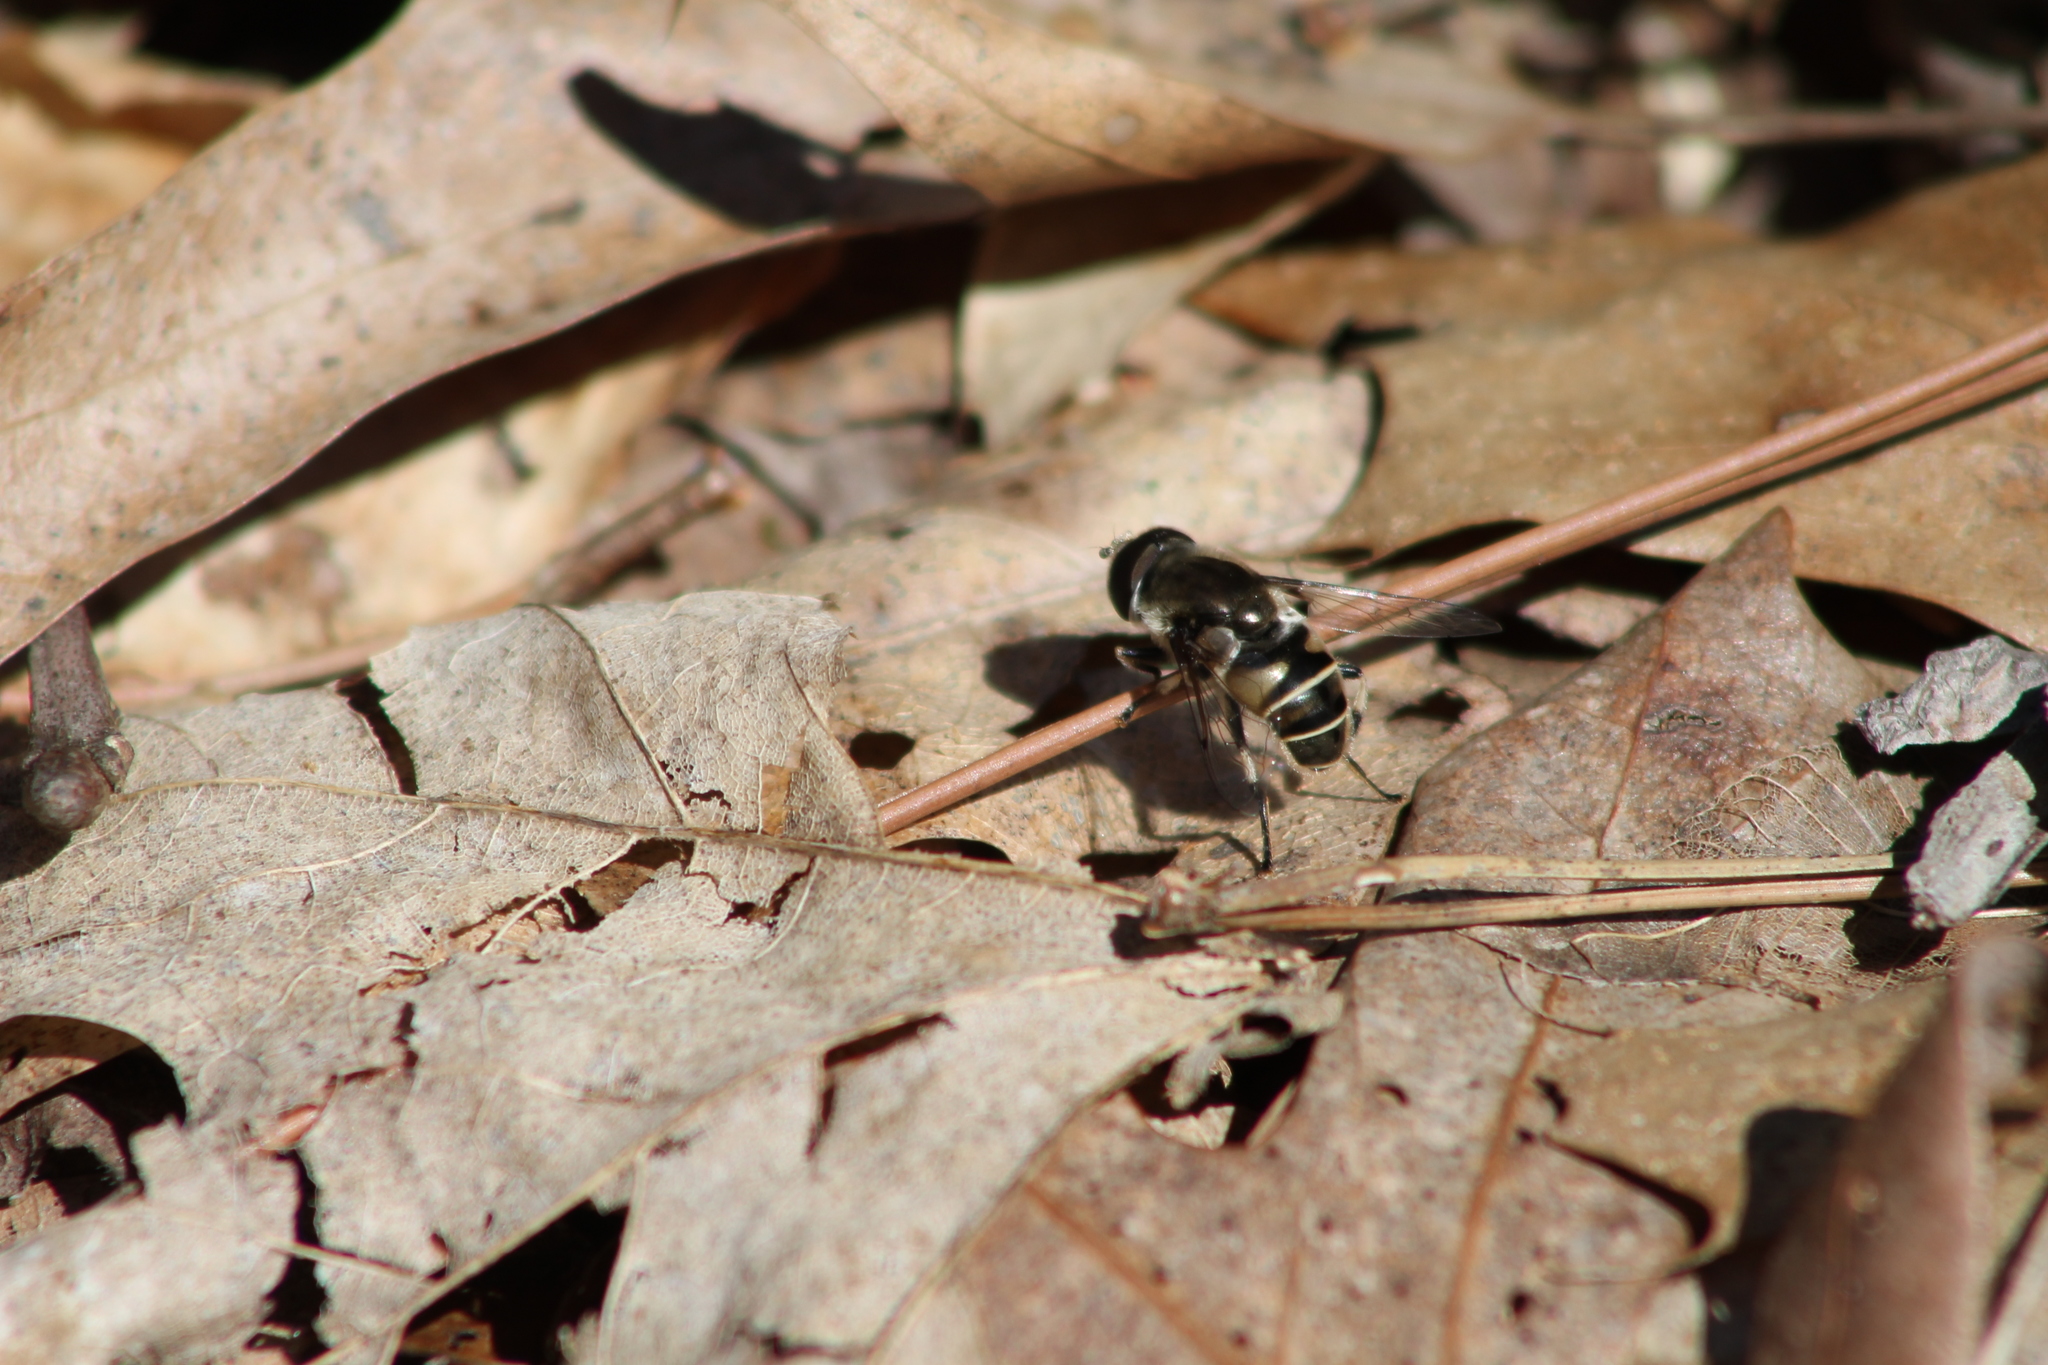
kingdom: Animalia
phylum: Arthropoda
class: Insecta
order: Diptera
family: Syrphidae
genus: Eristalis
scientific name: Eristalis dimidiata
